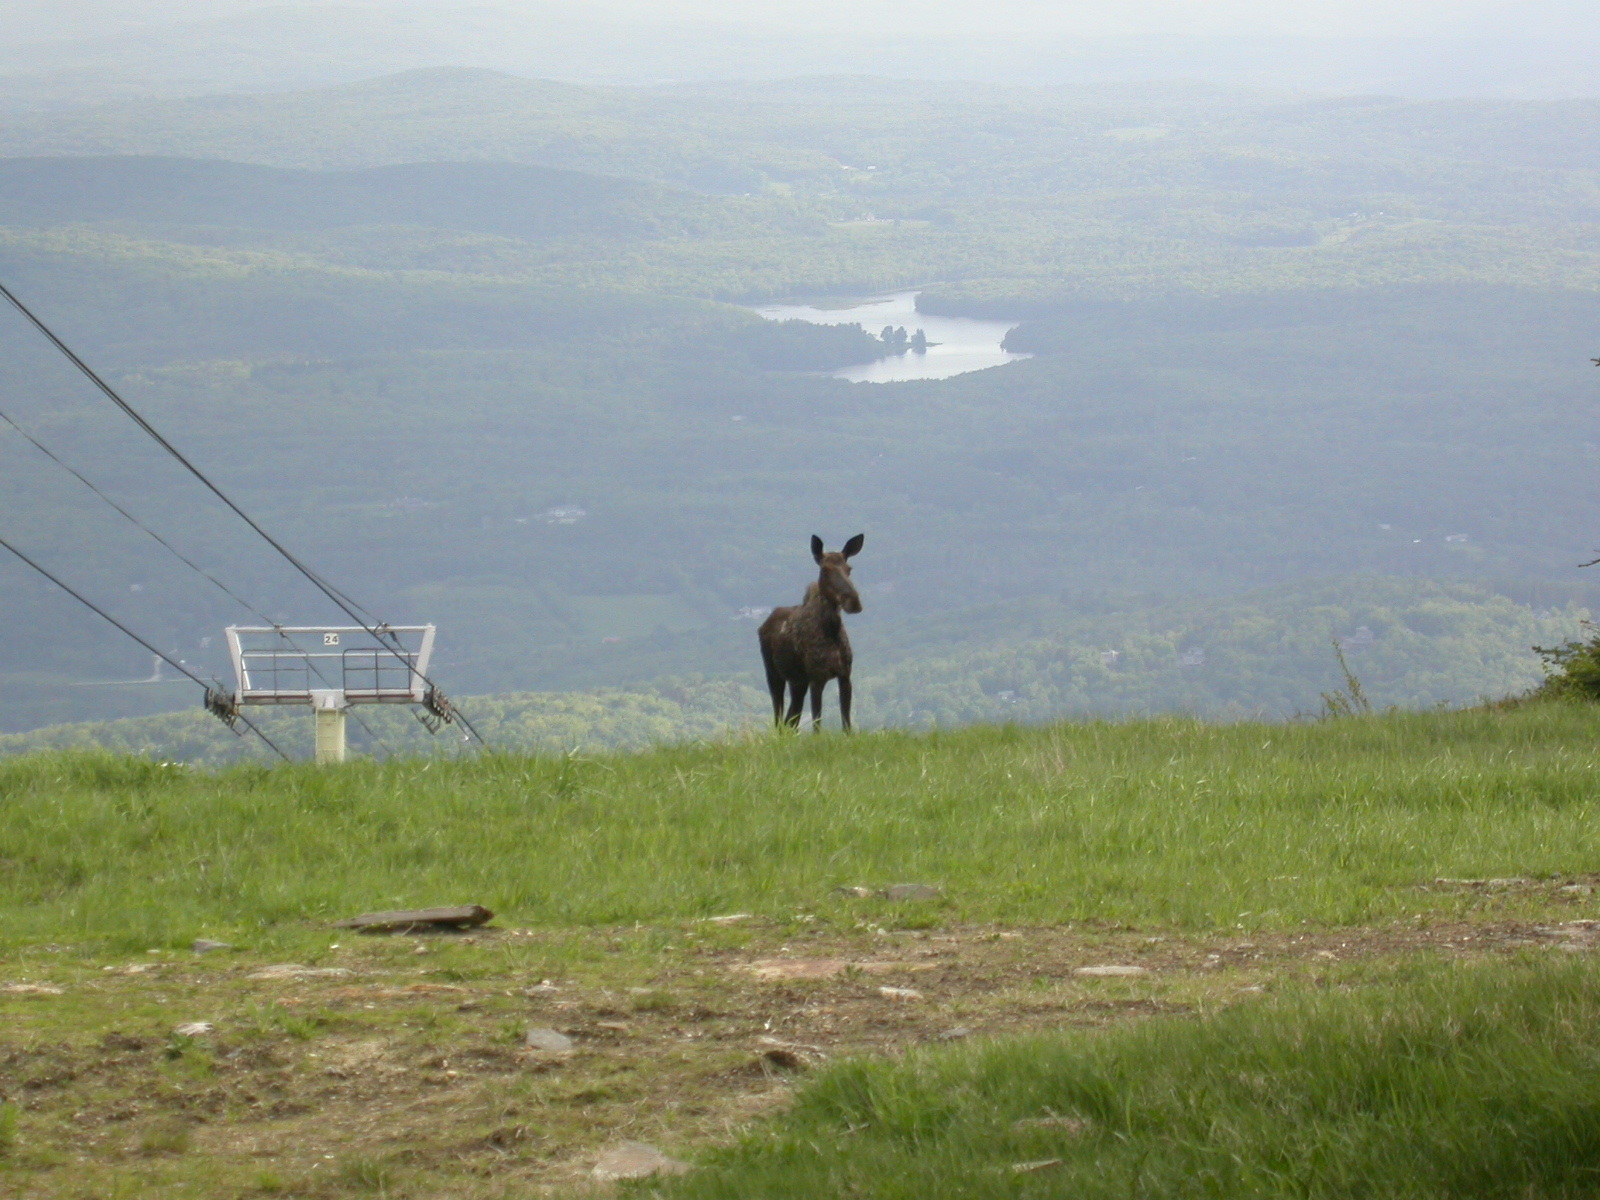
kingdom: Animalia
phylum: Chordata
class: Mammalia
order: Artiodactyla
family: Cervidae
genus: Alces
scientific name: Alces alces
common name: Moose
